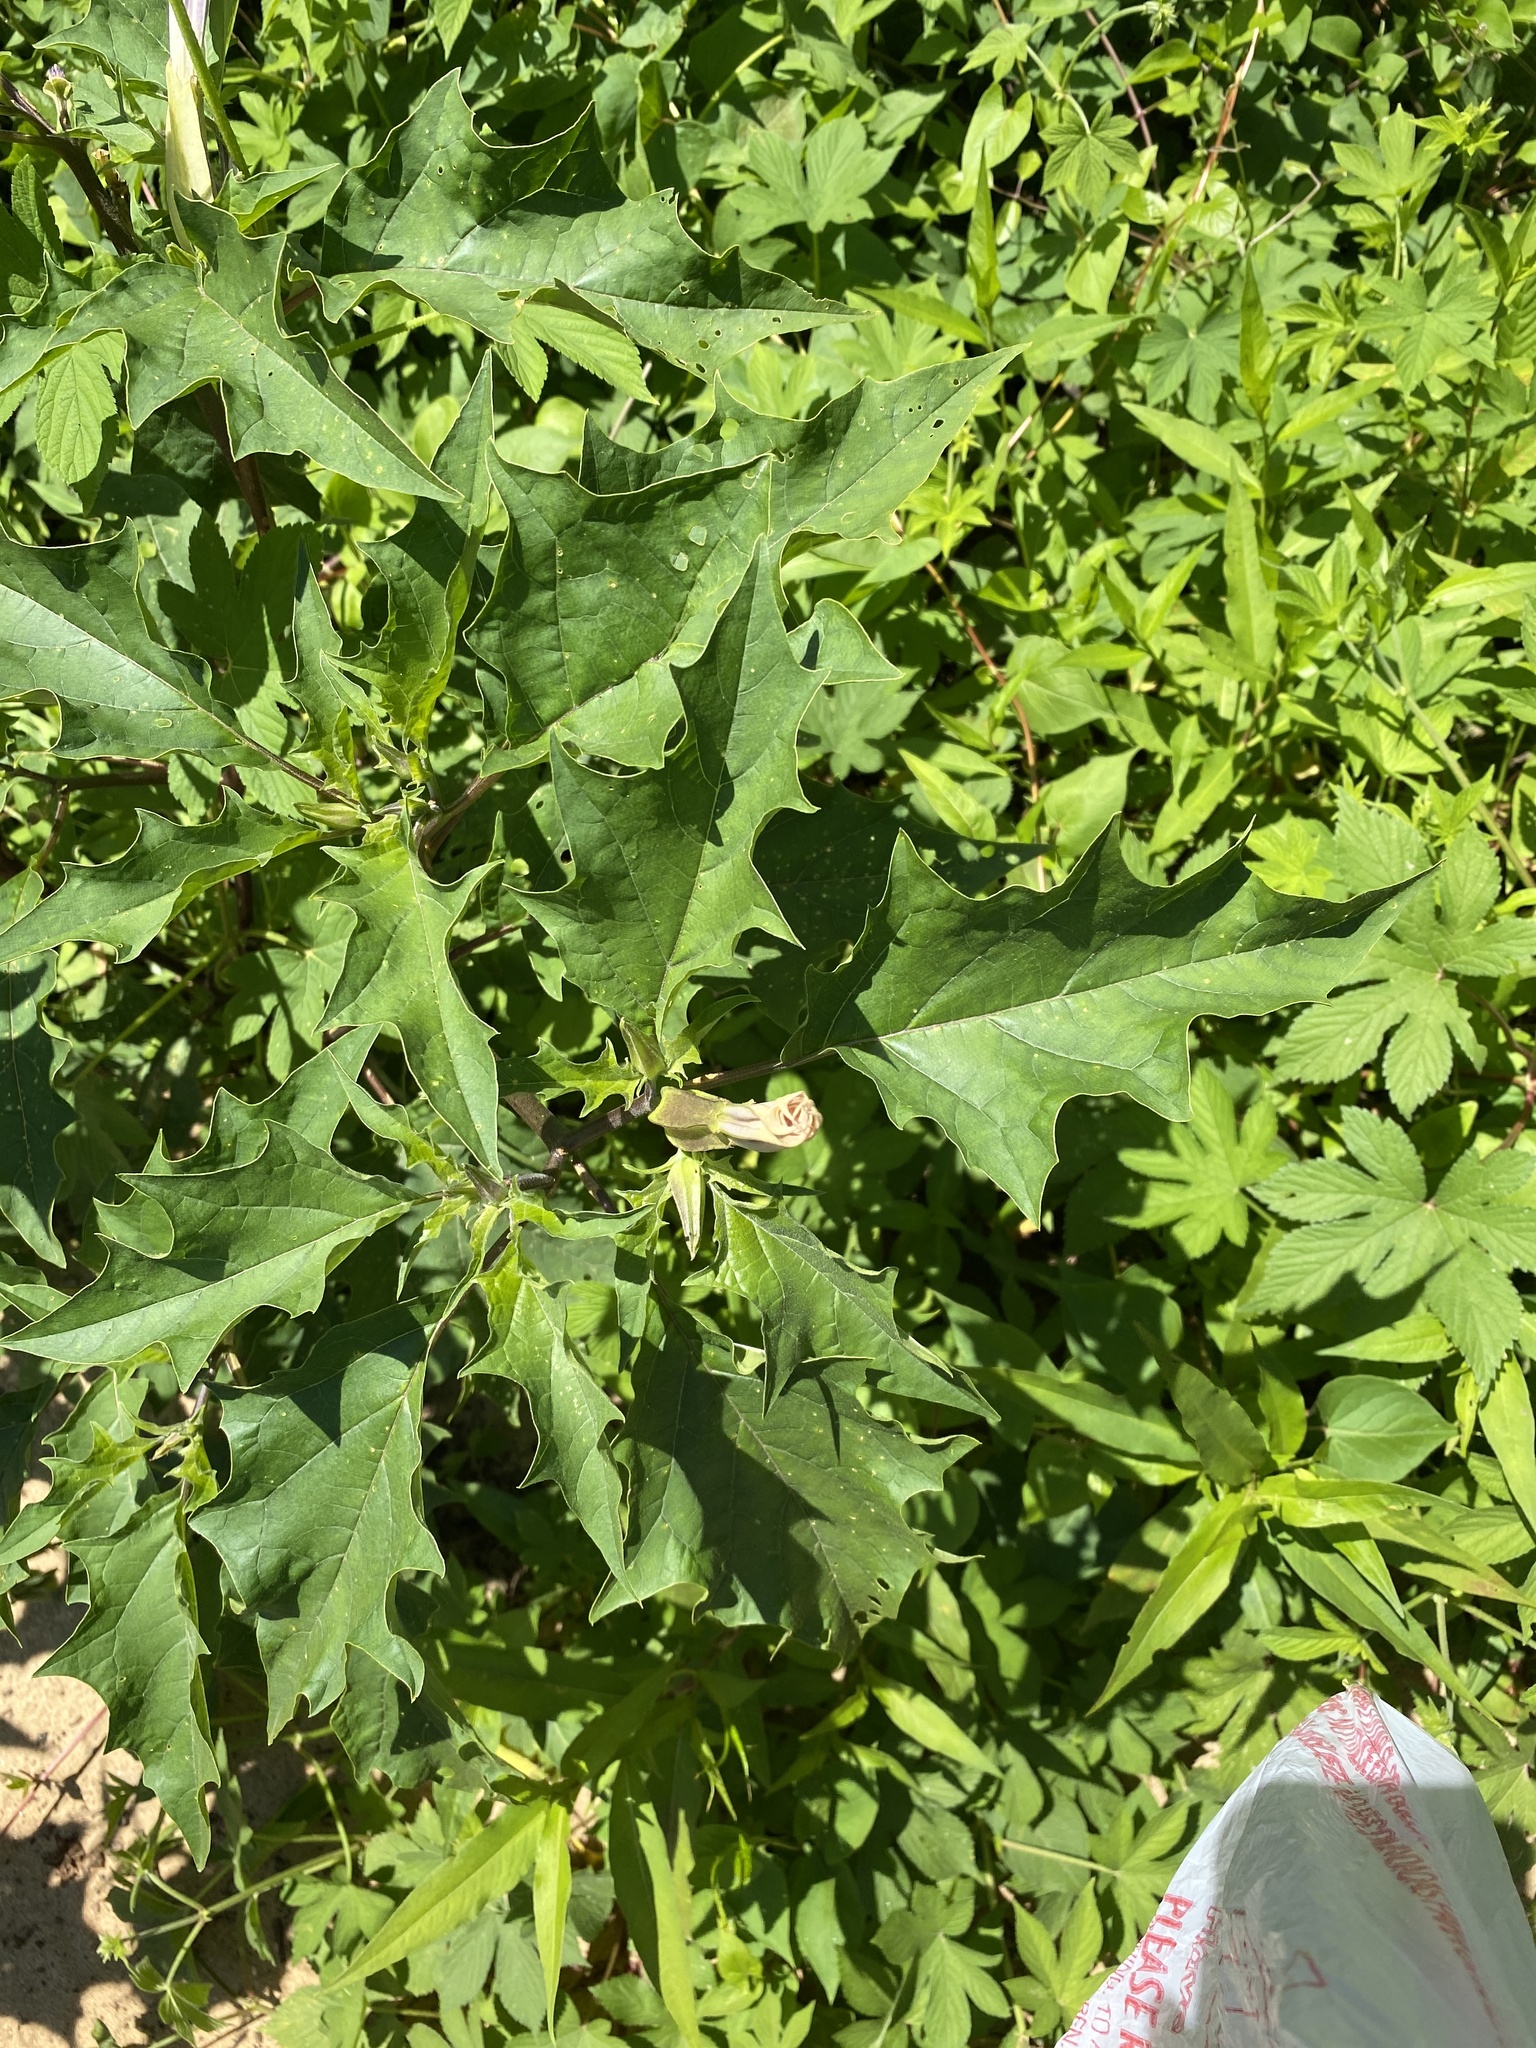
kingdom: Plantae
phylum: Tracheophyta
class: Magnoliopsida
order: Solanales
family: Solanaceae
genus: Datura
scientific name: Datura stramonium
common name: Thorn-apple
